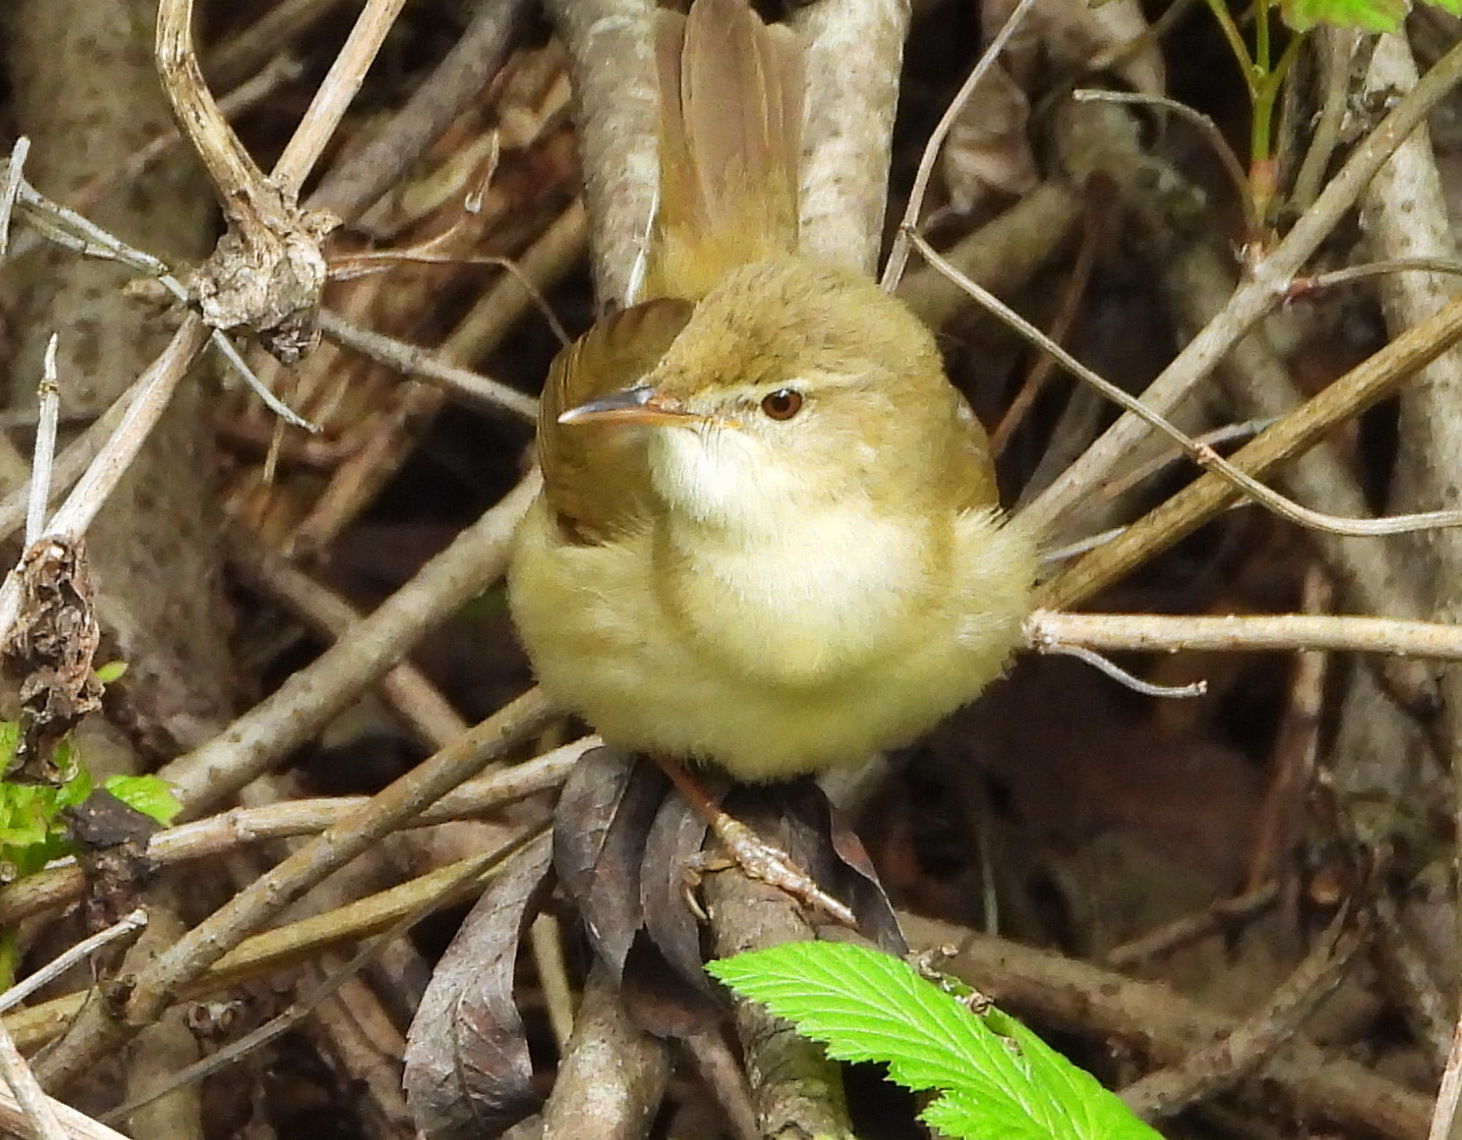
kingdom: Animalia
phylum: Chordata
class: Aves
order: Passeriformes
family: Acrocephalidae
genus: Acrocephalus
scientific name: Acrocephalus dumetorum
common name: Blyth's reed warbler
